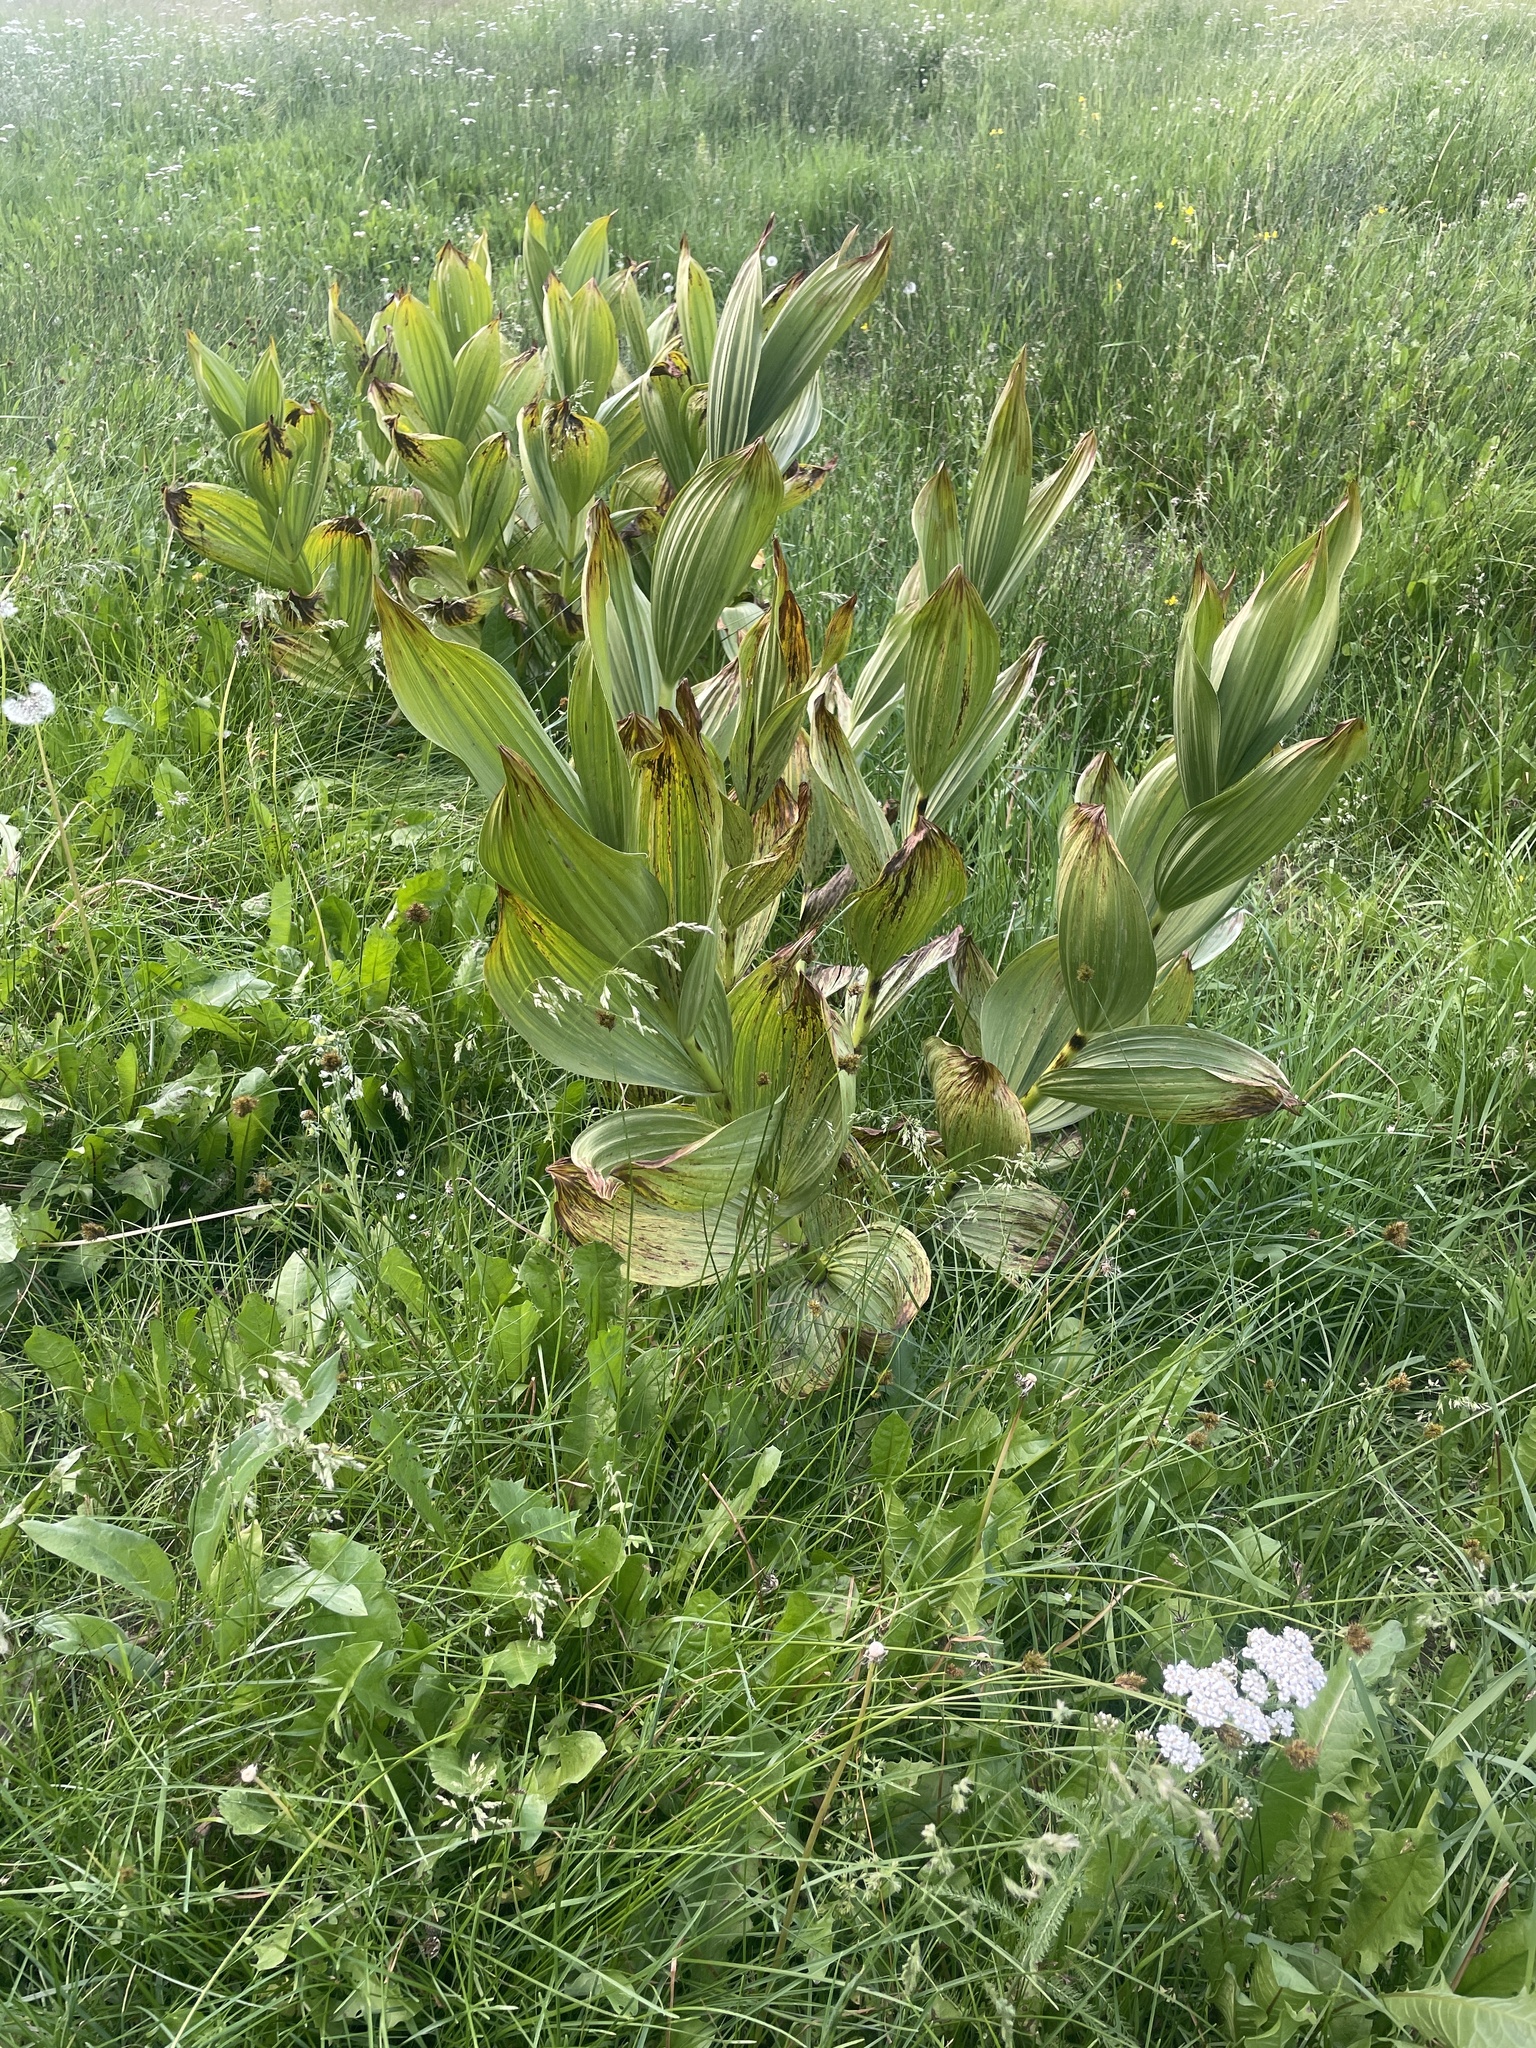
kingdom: Plantae
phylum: Tracheophyta
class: Liliopsida
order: Liliales
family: Melanthiaceae
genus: Veratrum
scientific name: Veratrum californicum
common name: California veratrum
